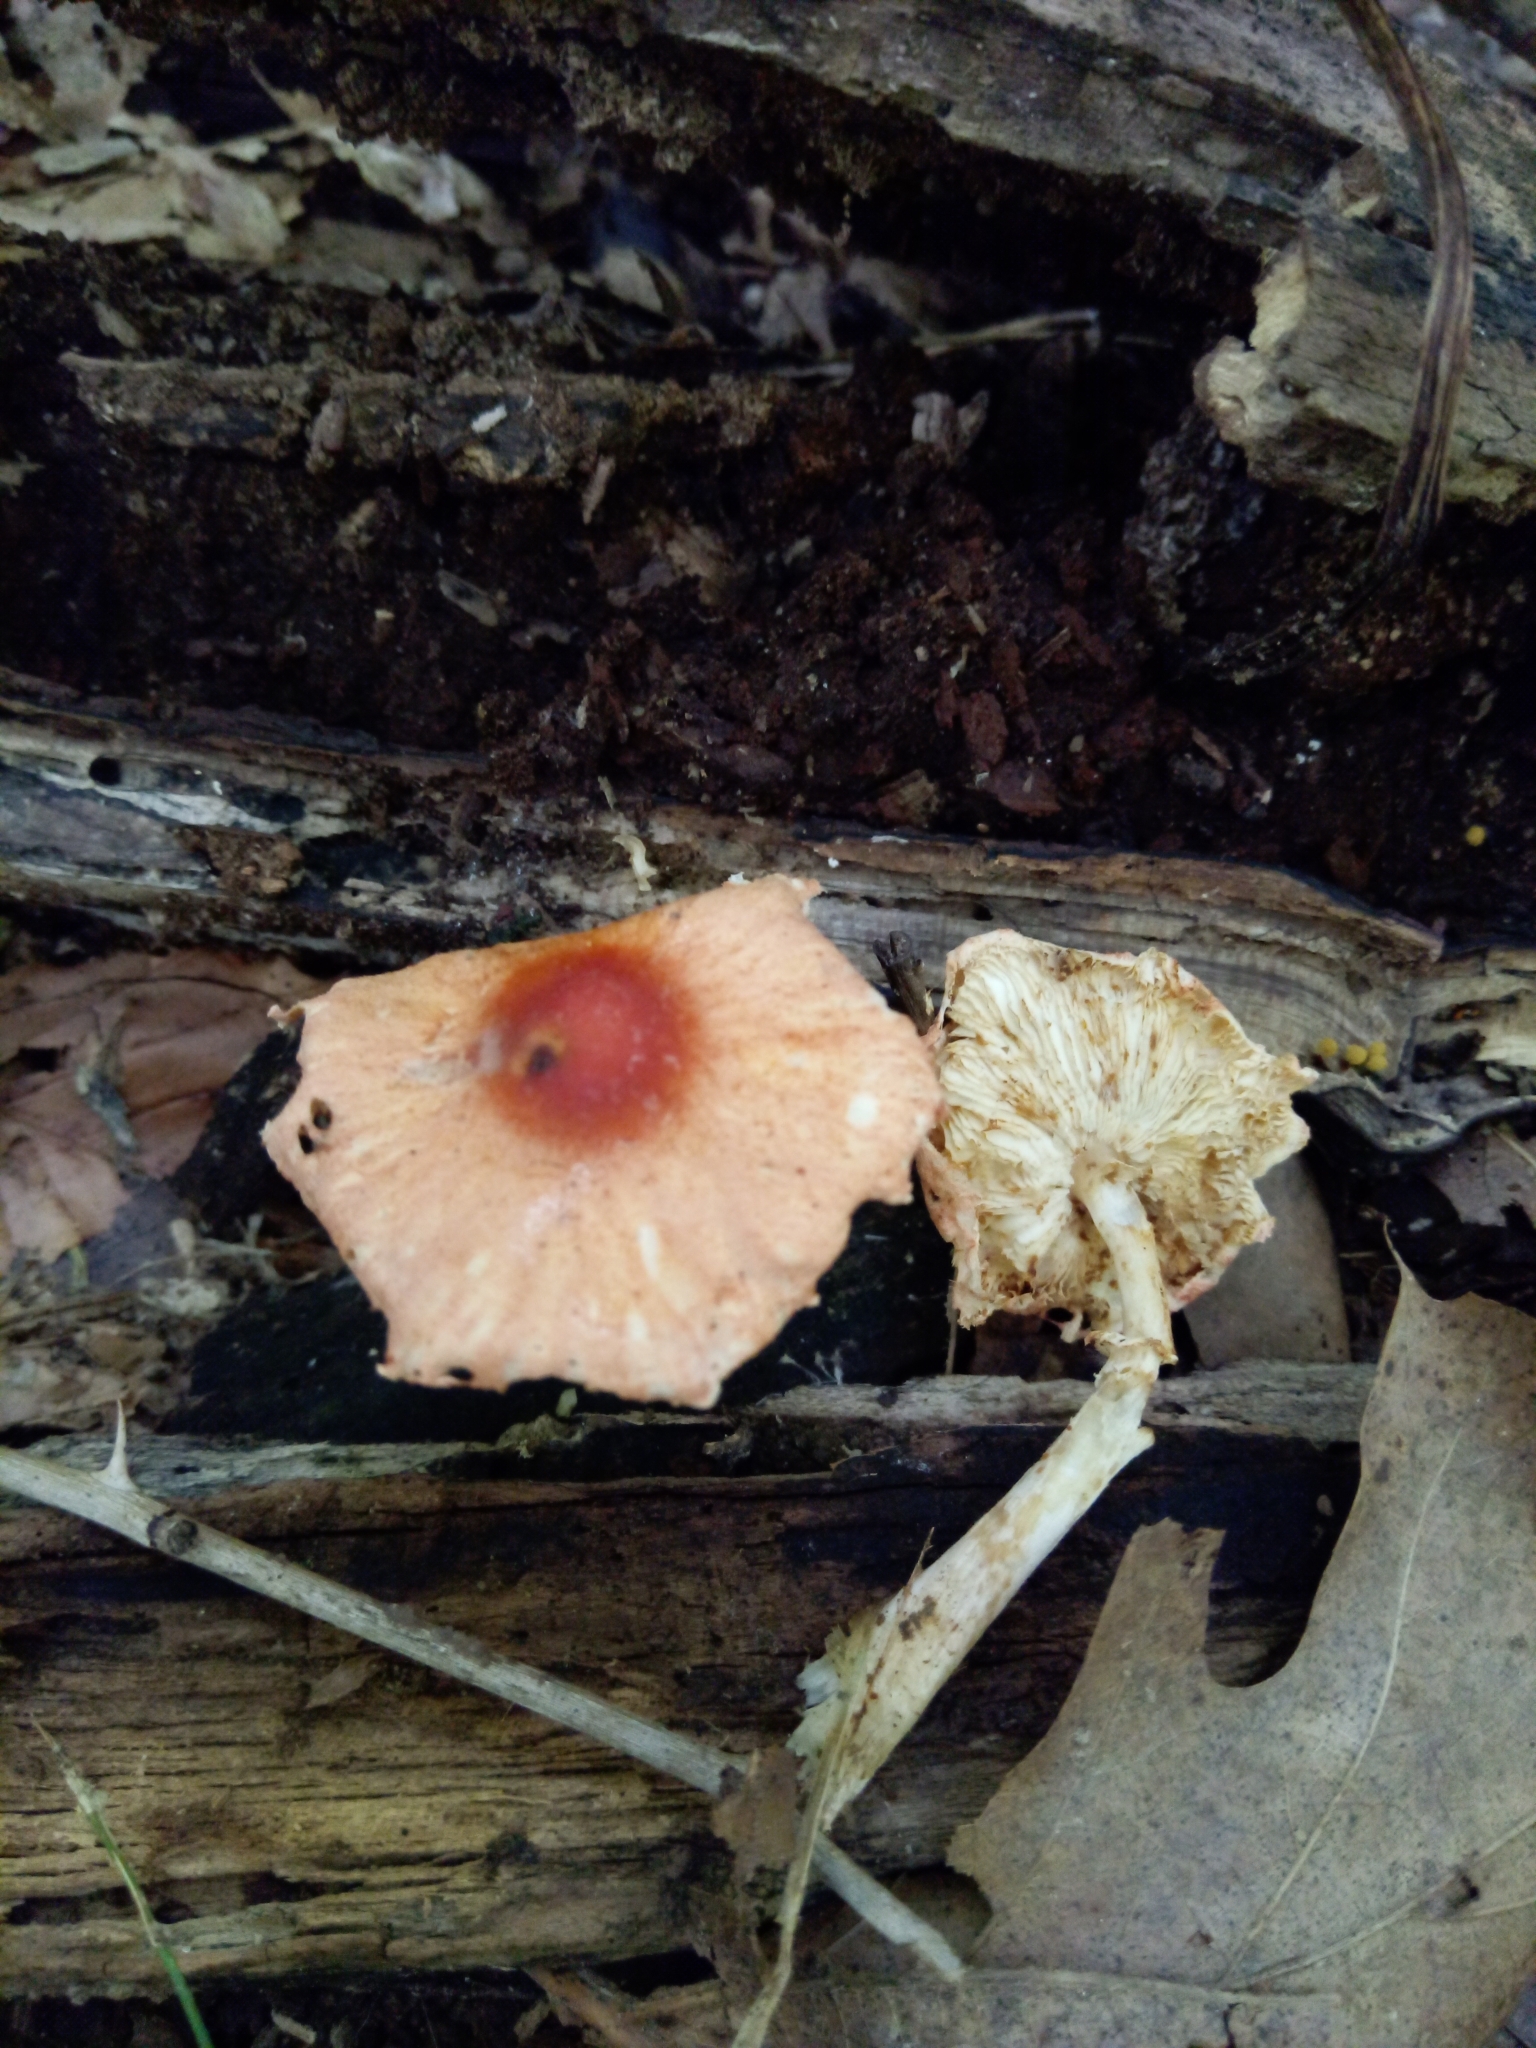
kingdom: Fungi
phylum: Basidiomycota
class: Agaricomycetes
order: Agaricales
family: Agaricaceae
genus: Leucoagaricus
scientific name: Leucoagaricus rubrotinctus
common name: Ruby dapperling
